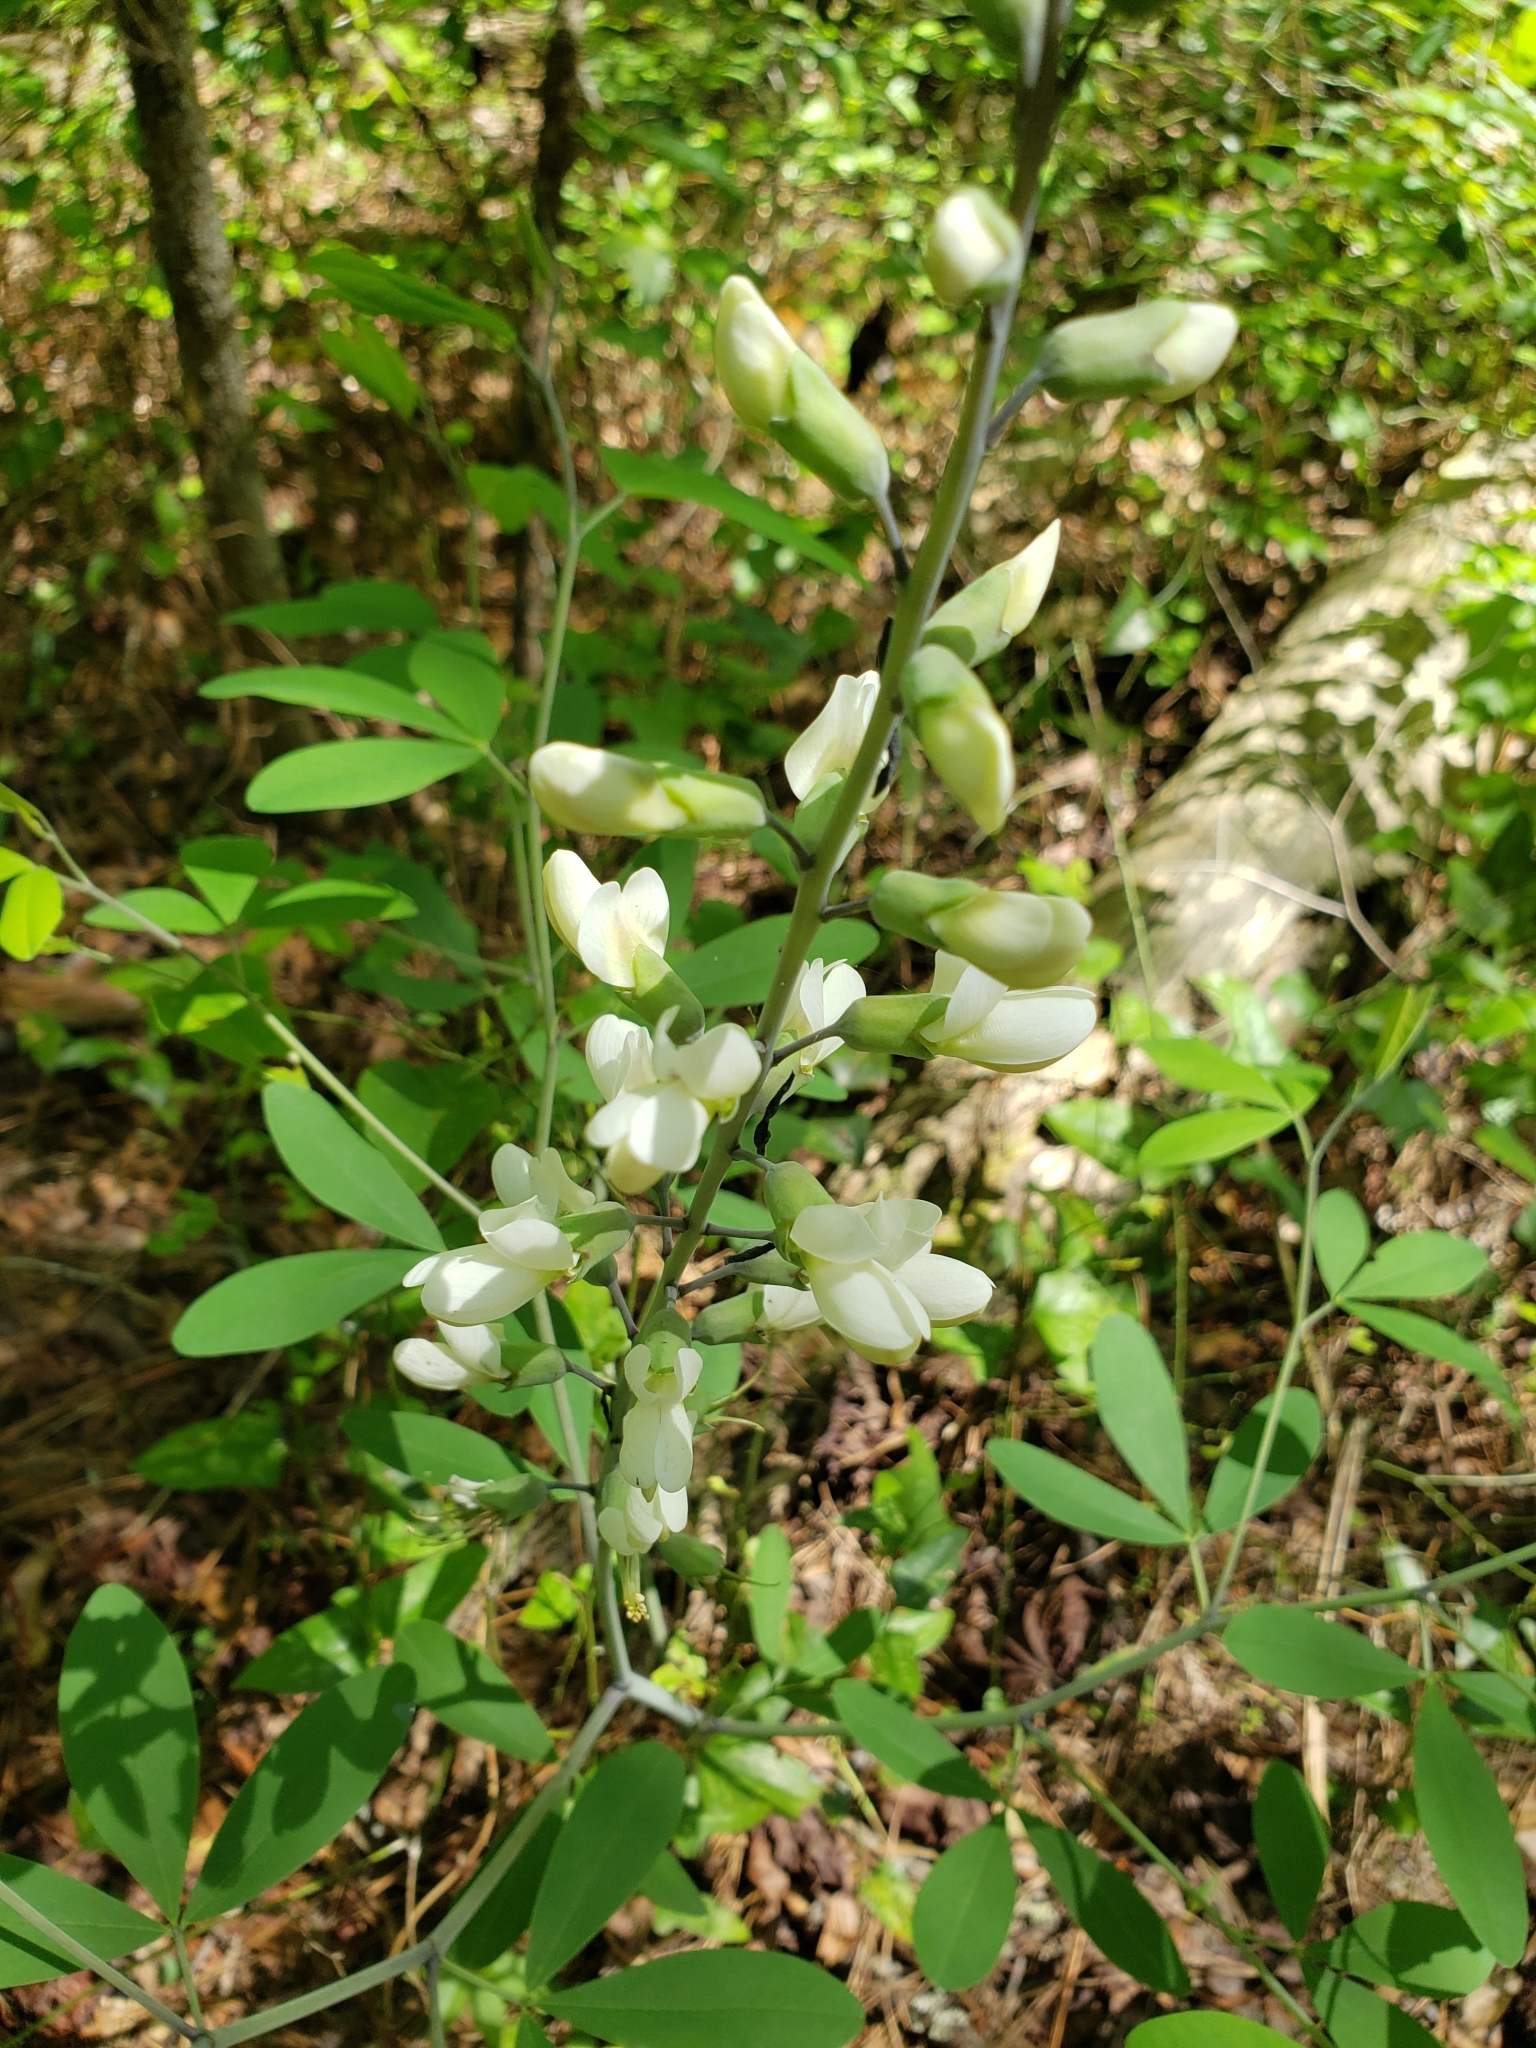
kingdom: Plantae
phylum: Tracheophyta
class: Magnoliopsida
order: Fabales
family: Fabaceae
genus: Baptisia
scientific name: Baptisia alba
